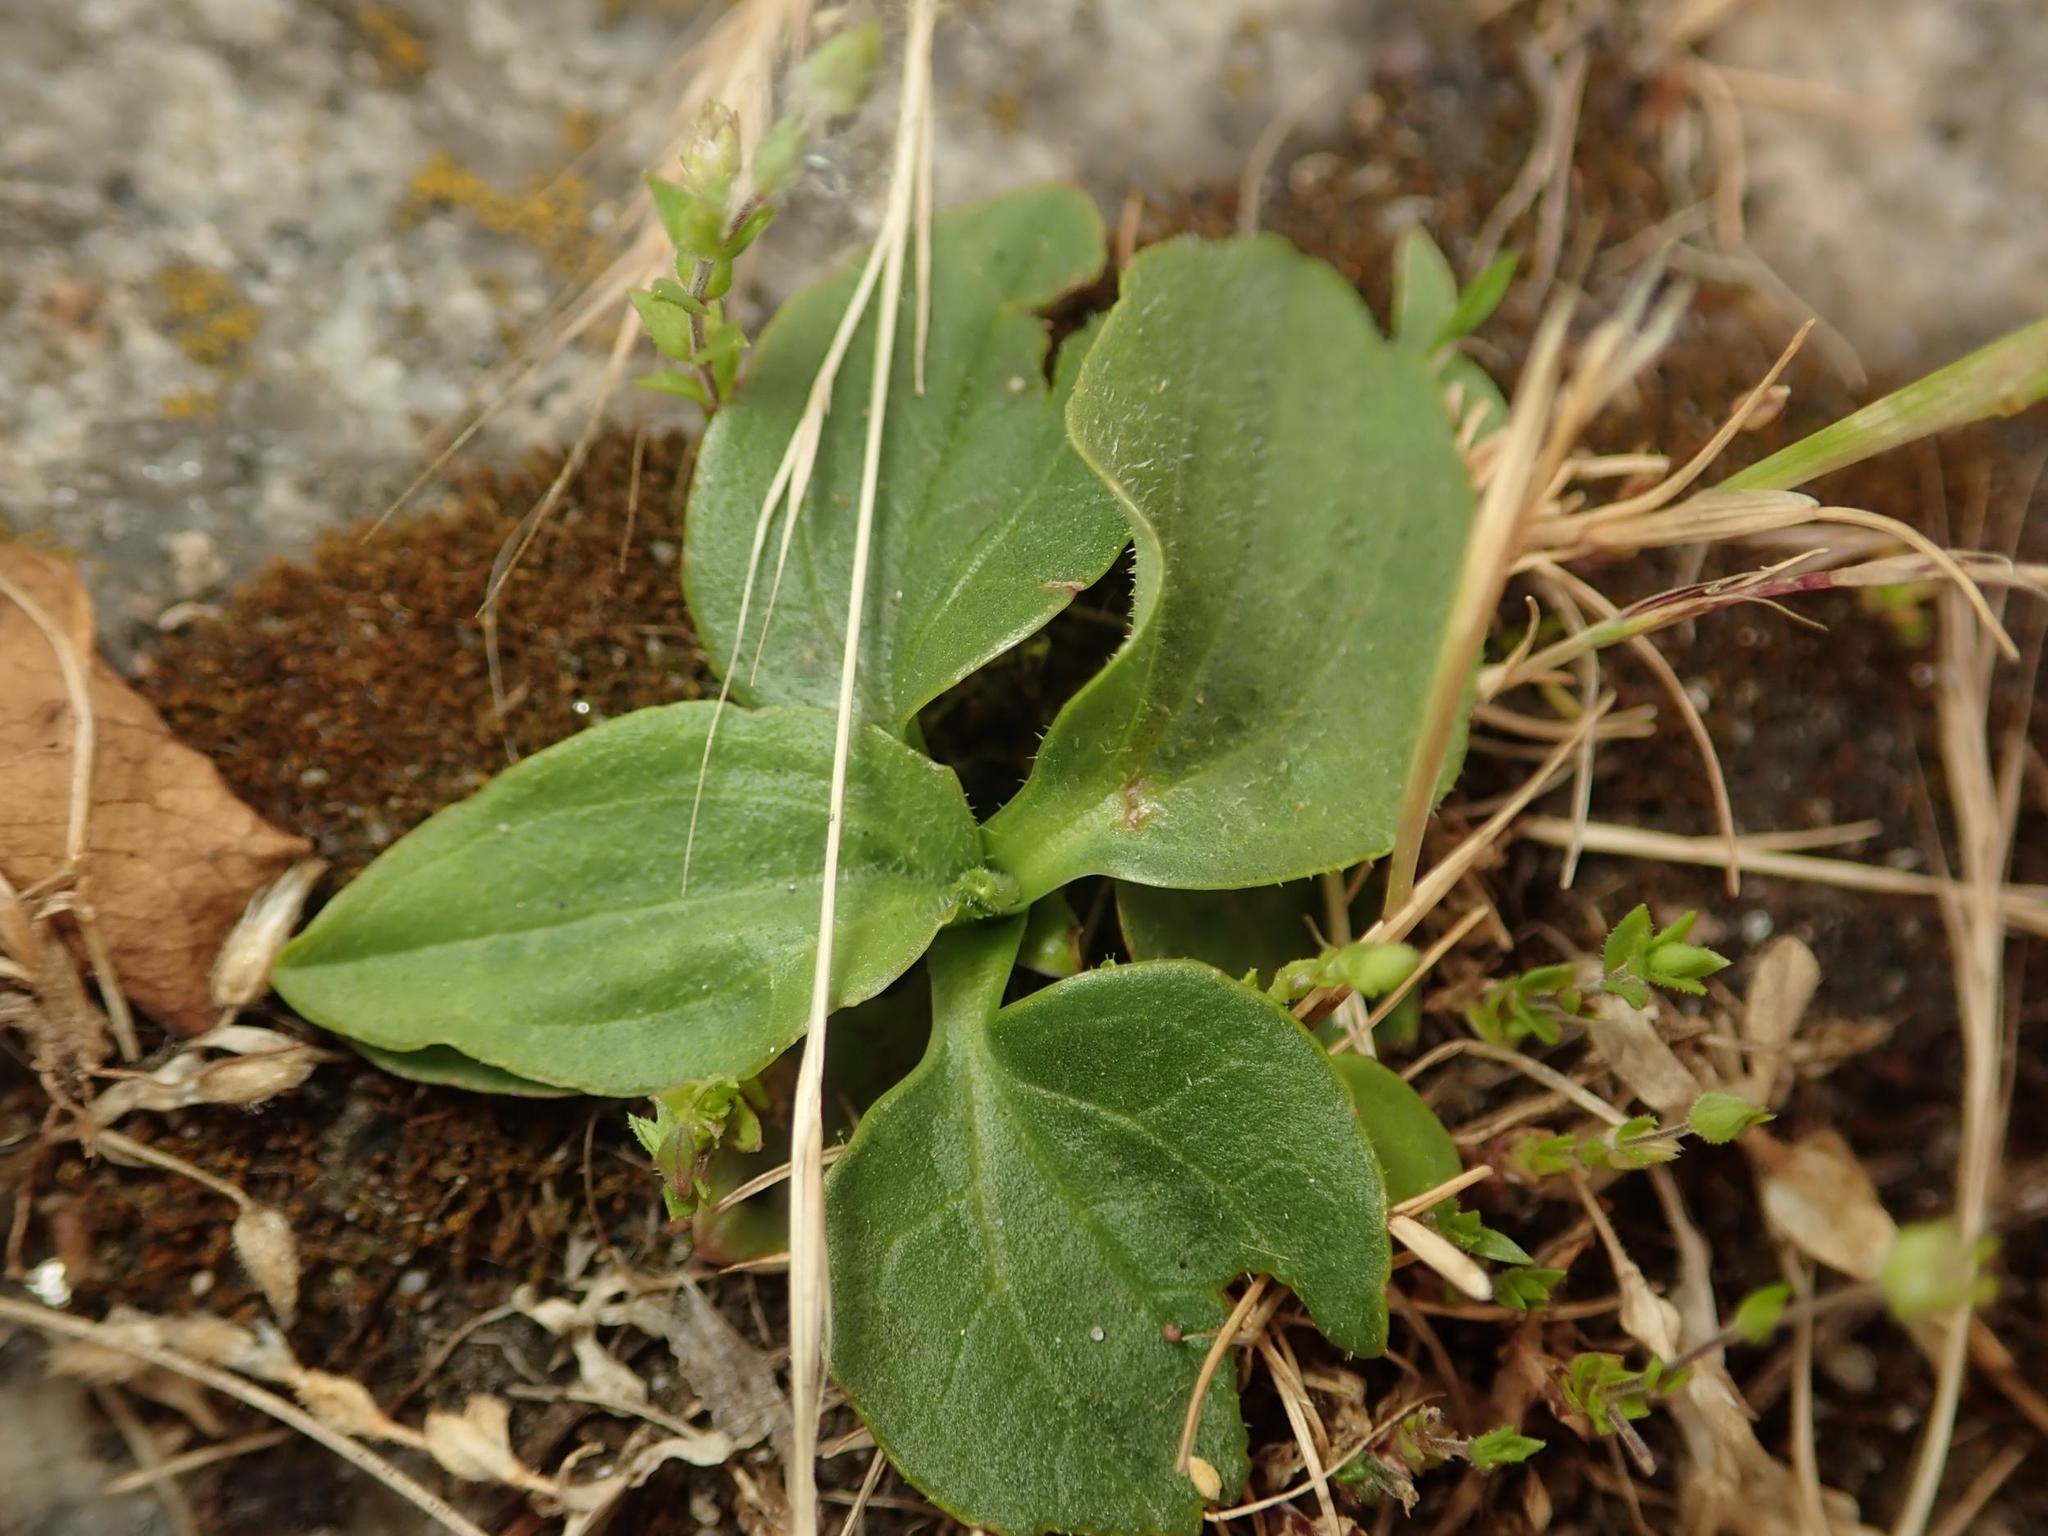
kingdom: Plantae
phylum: Tracheophyta
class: Magnoliopsida
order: Lamiales
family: Plantaginaceae
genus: Plantago
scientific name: Plantago major
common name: Common plantain
